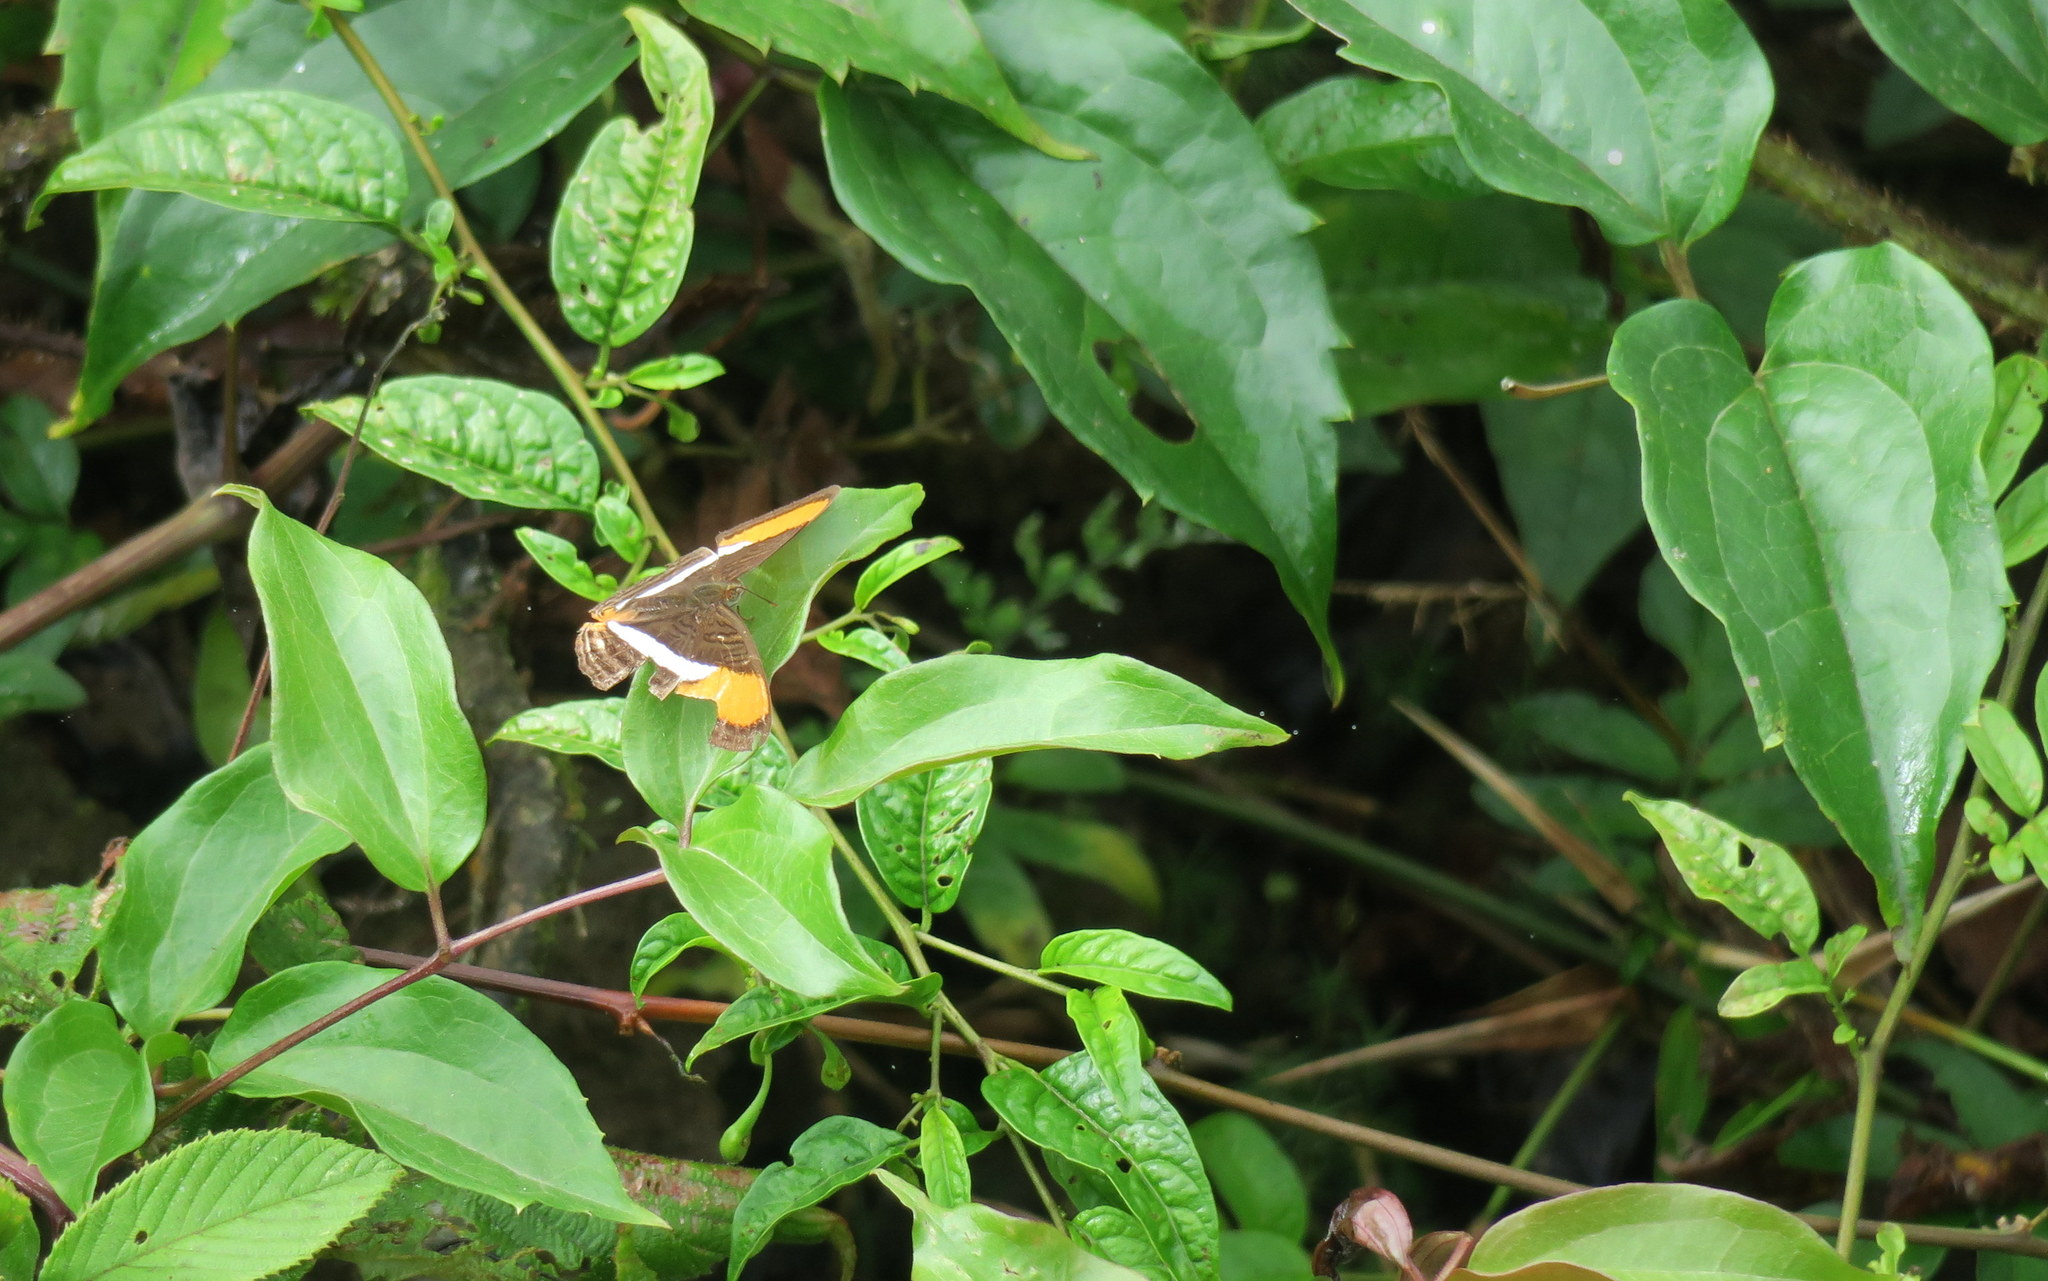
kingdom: Animalia
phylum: Arthropoda
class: Insecta
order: Lepidoptera
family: Nymphalidae
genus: Limenitis
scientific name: Limenitis cytherea
